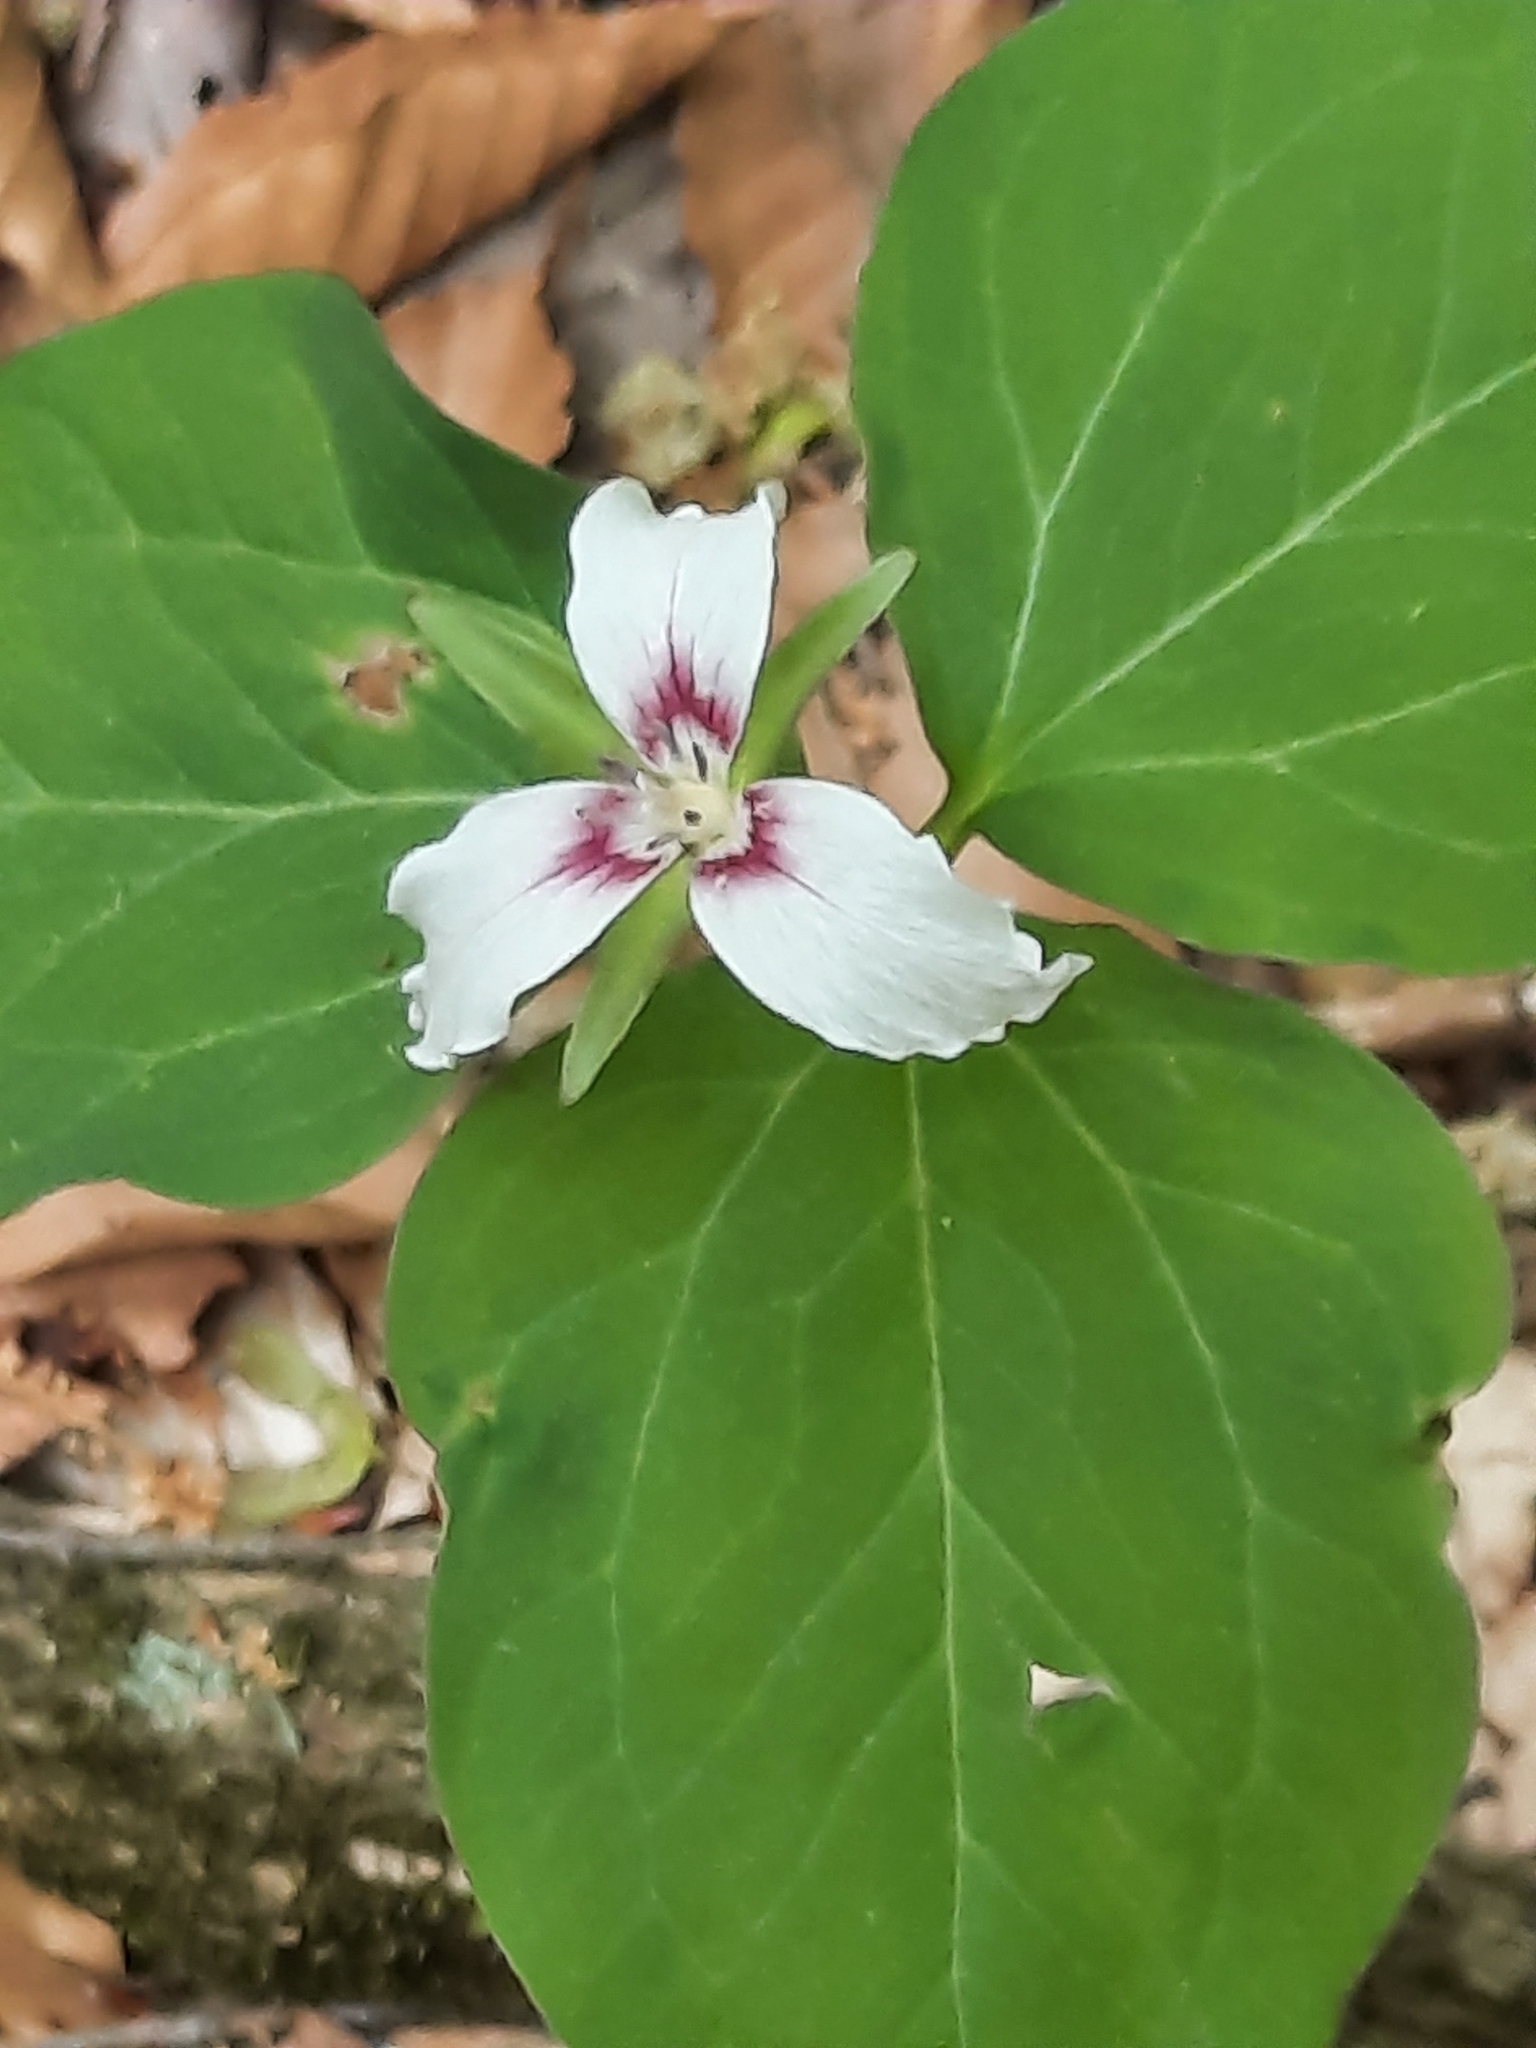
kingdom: Plantae
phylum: Tracheophyta
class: Liliopsida
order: Liliales
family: Melanthiaceae
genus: Trillium
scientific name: Trillium undulatum
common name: Paint trillium
